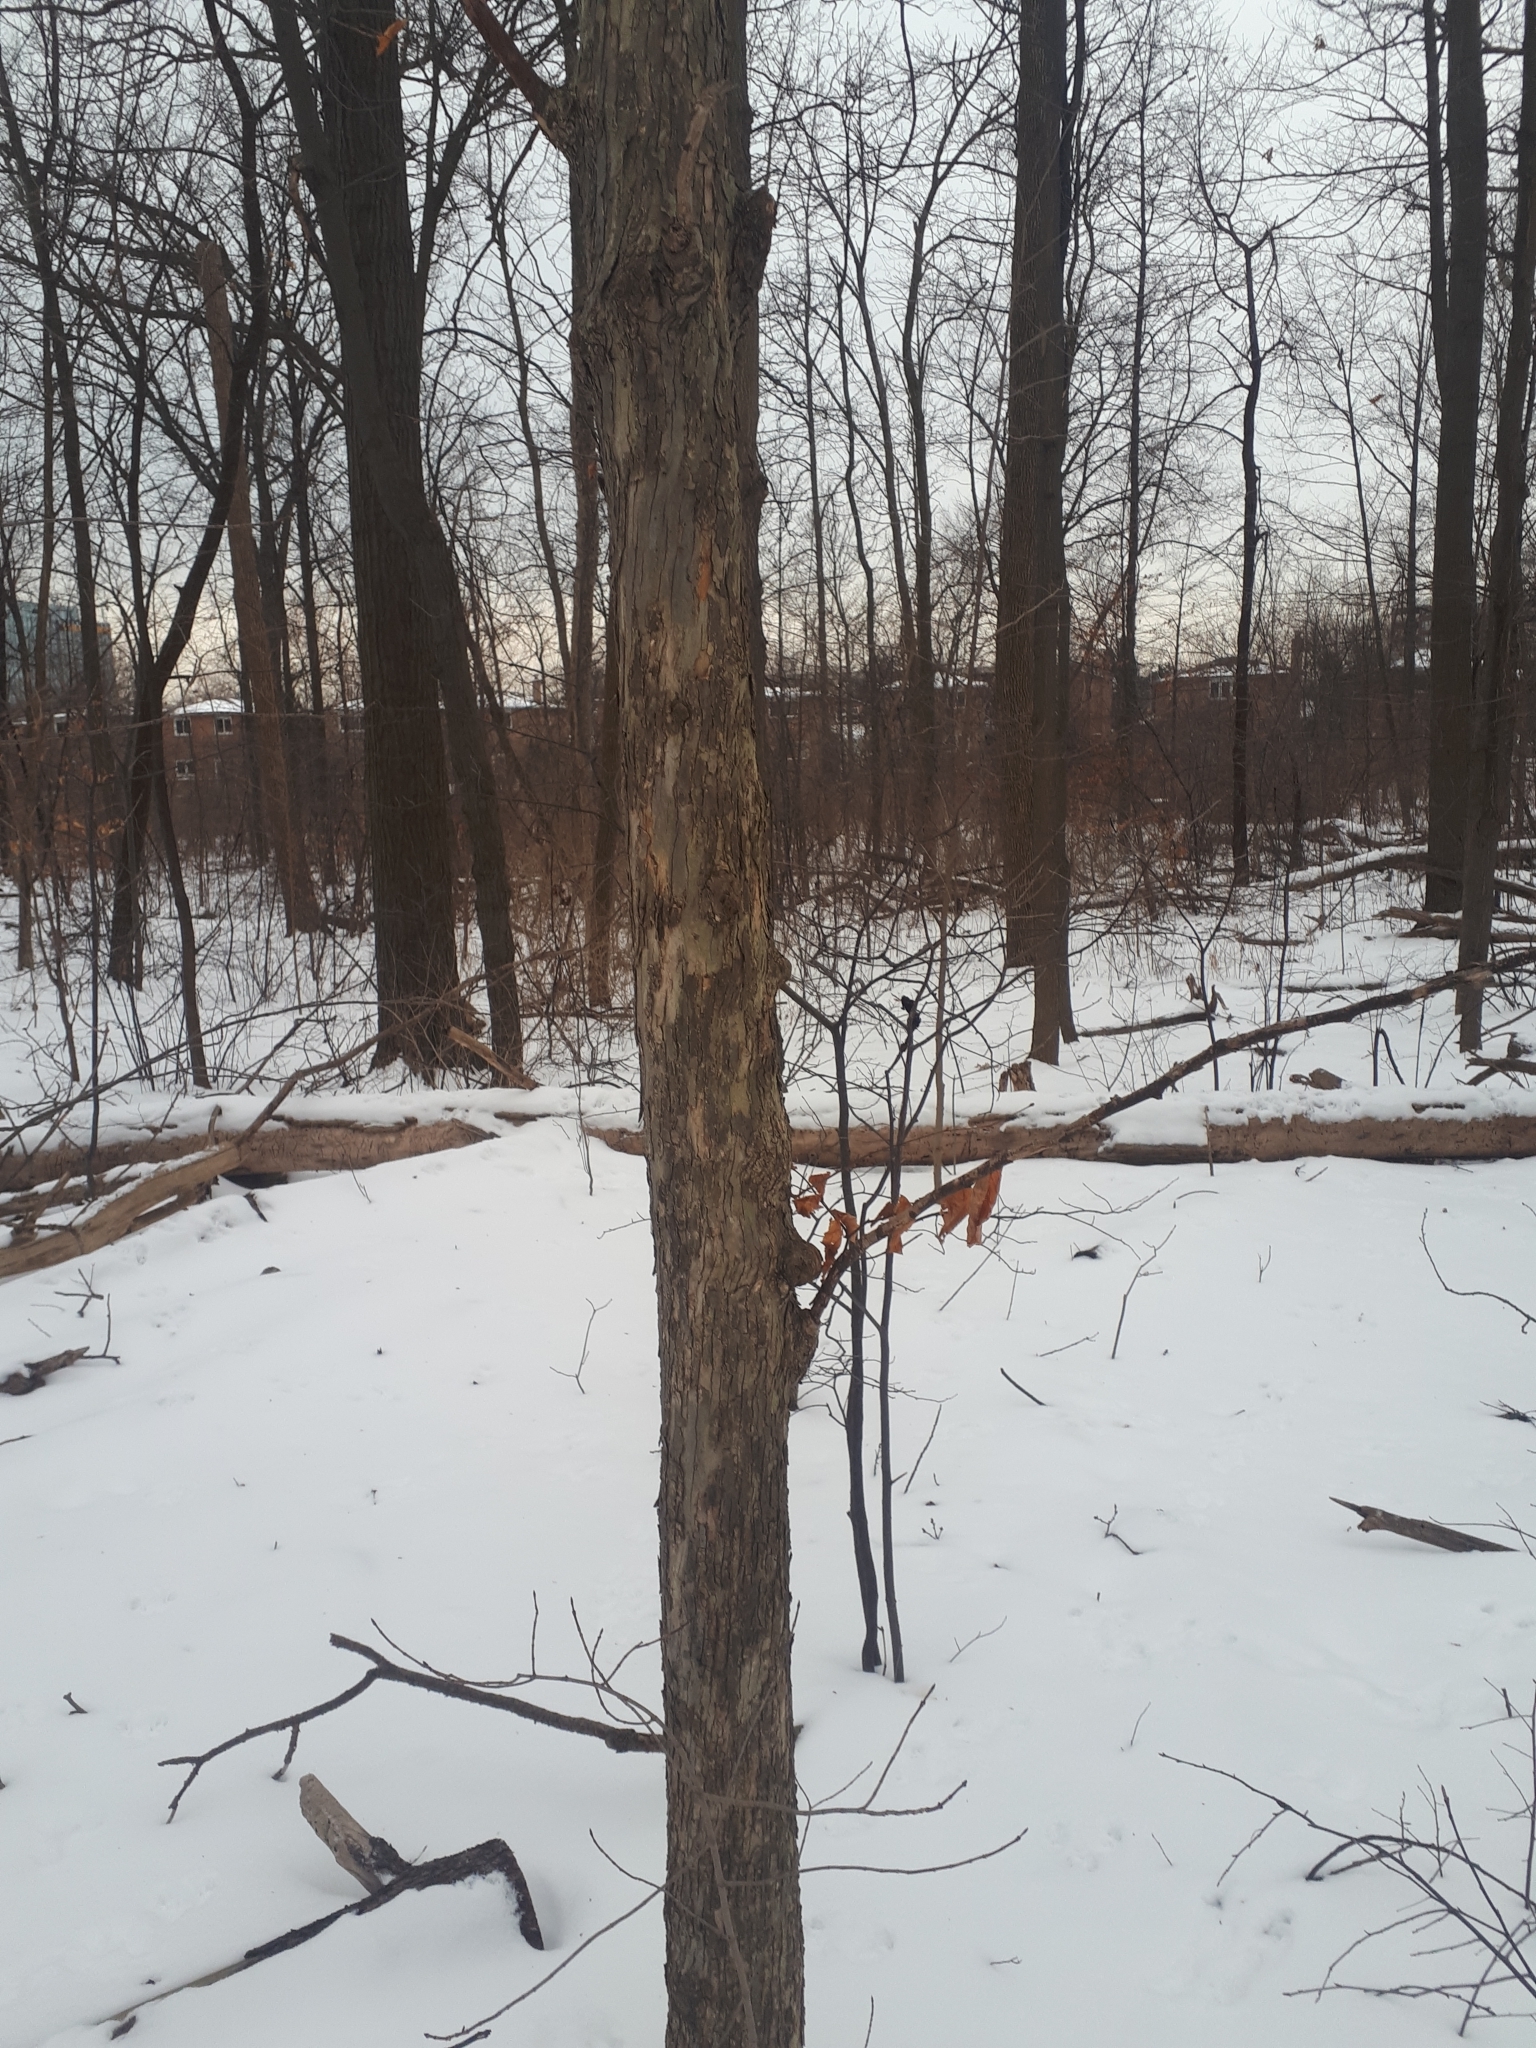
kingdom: Plantae
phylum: Tracheophyta
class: Magnoliopsida
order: Fagales
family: Betulaceae
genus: Ostrya
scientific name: Ostrya virginiana
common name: Ironwood
